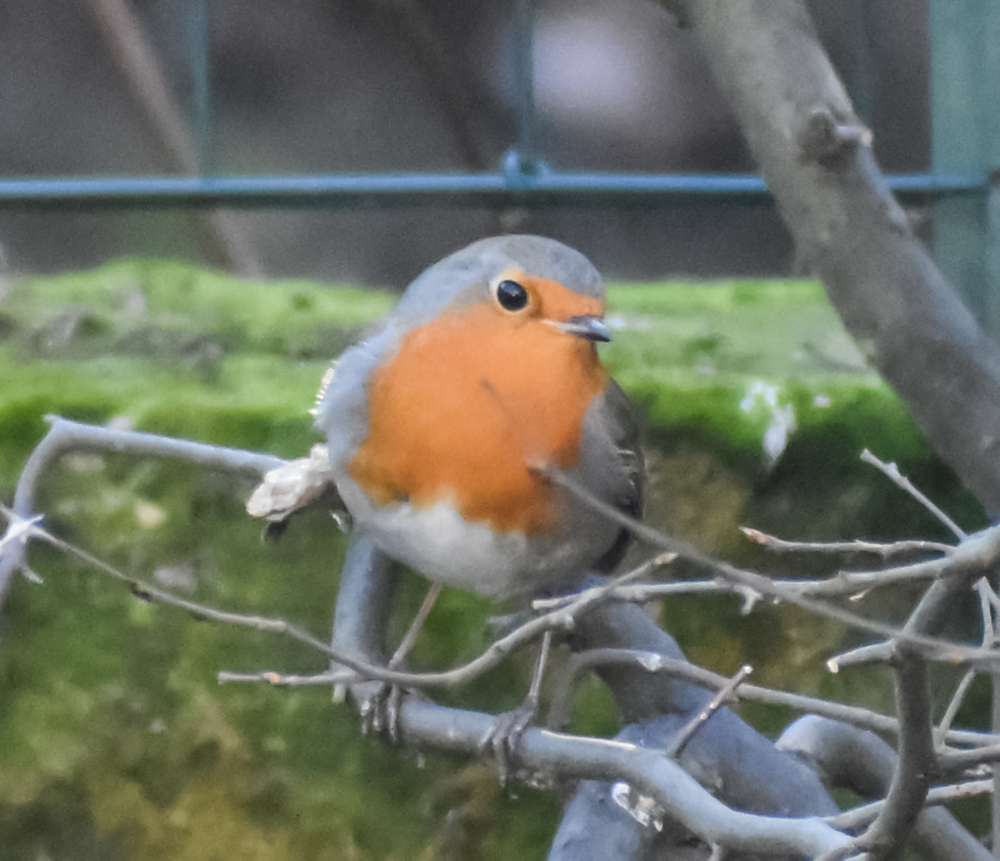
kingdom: Animalia
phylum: Chordata
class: Aves
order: Passeriformes
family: Muscicapidae
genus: Erithacus
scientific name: Erithacus rubecula
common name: European robin
